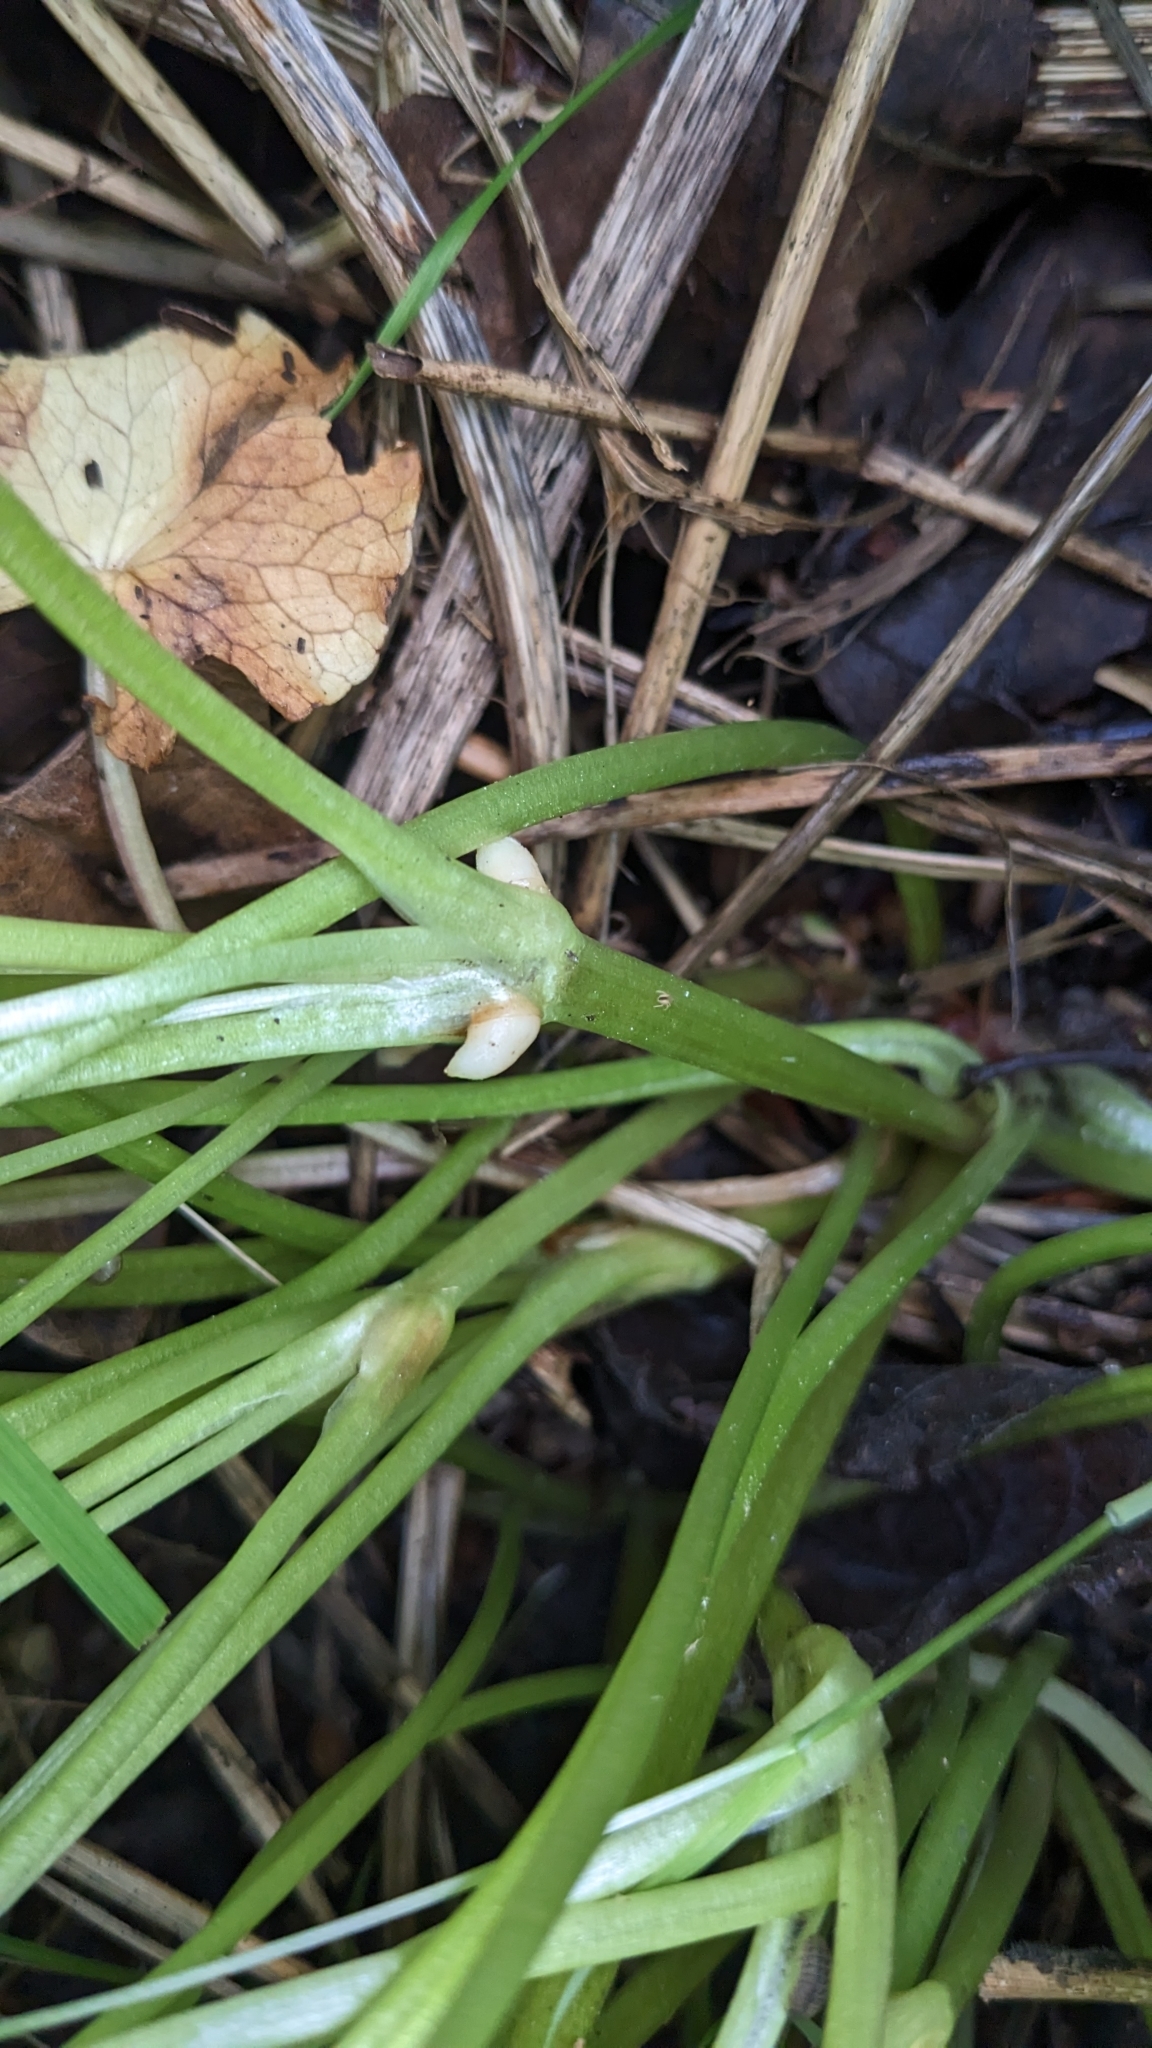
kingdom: Plantae
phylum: Tracheophyta
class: Magnoliopsida
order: Ranunculales
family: Ranunculaceae
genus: Ficaria
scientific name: Ficaria verna
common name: Lesser celandine
